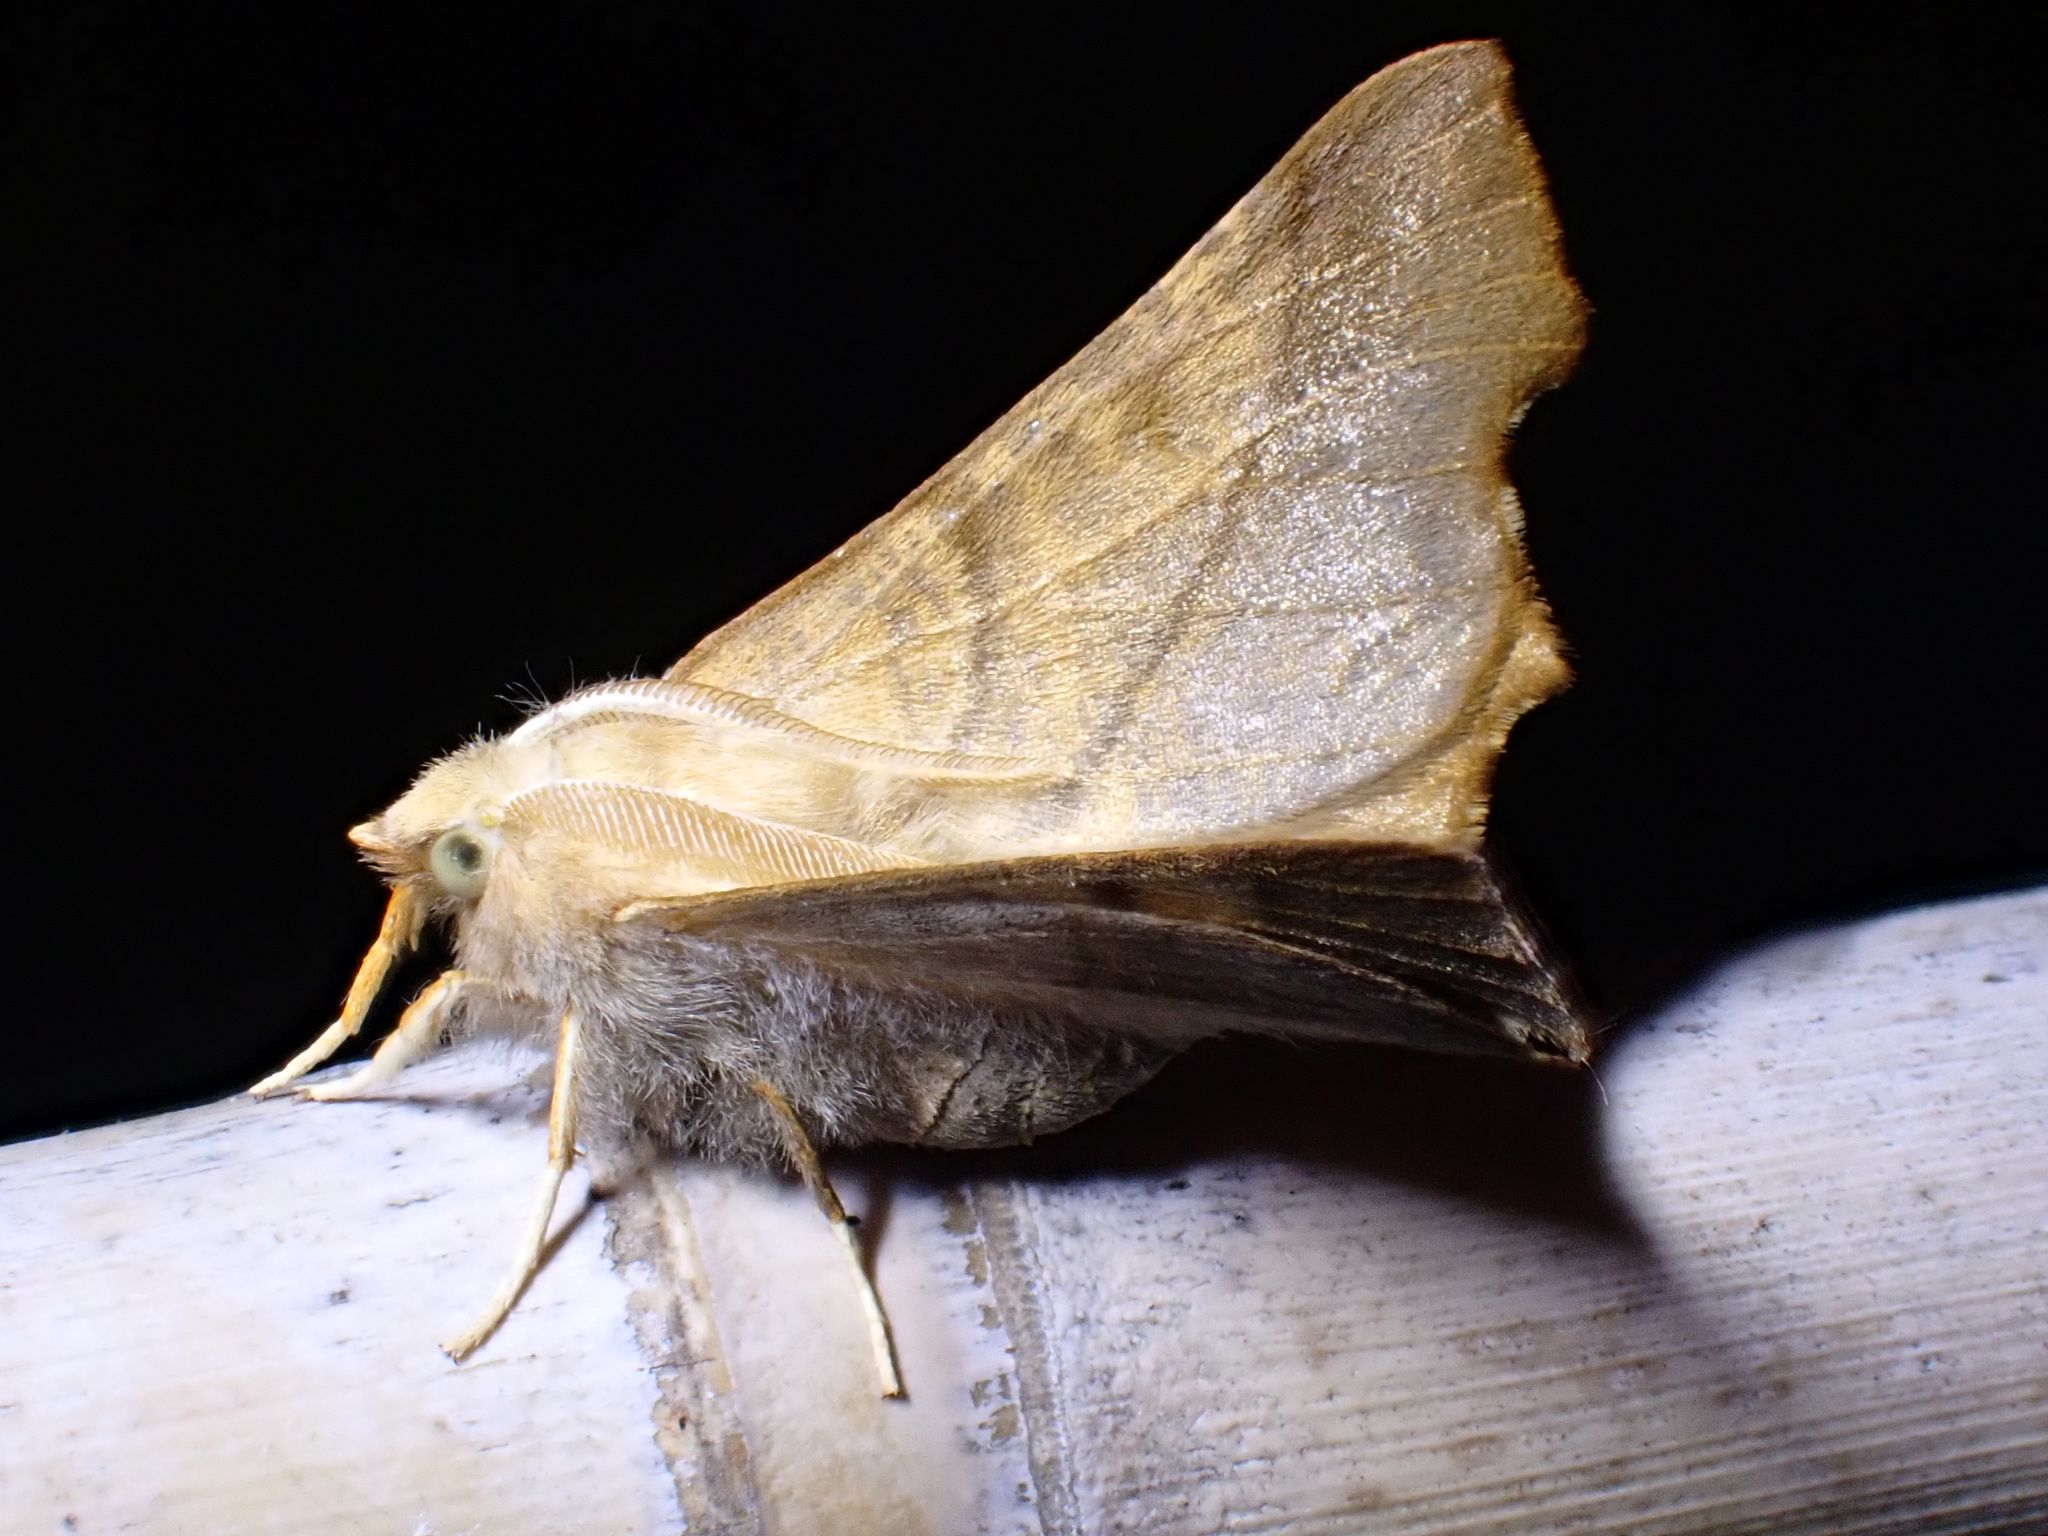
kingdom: Animalia
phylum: Arthropoda
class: Insecta
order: Lepidoptera
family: Geometridae
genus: Ennomos
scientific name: Ennomos fuscantaria
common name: Dusky thorn
